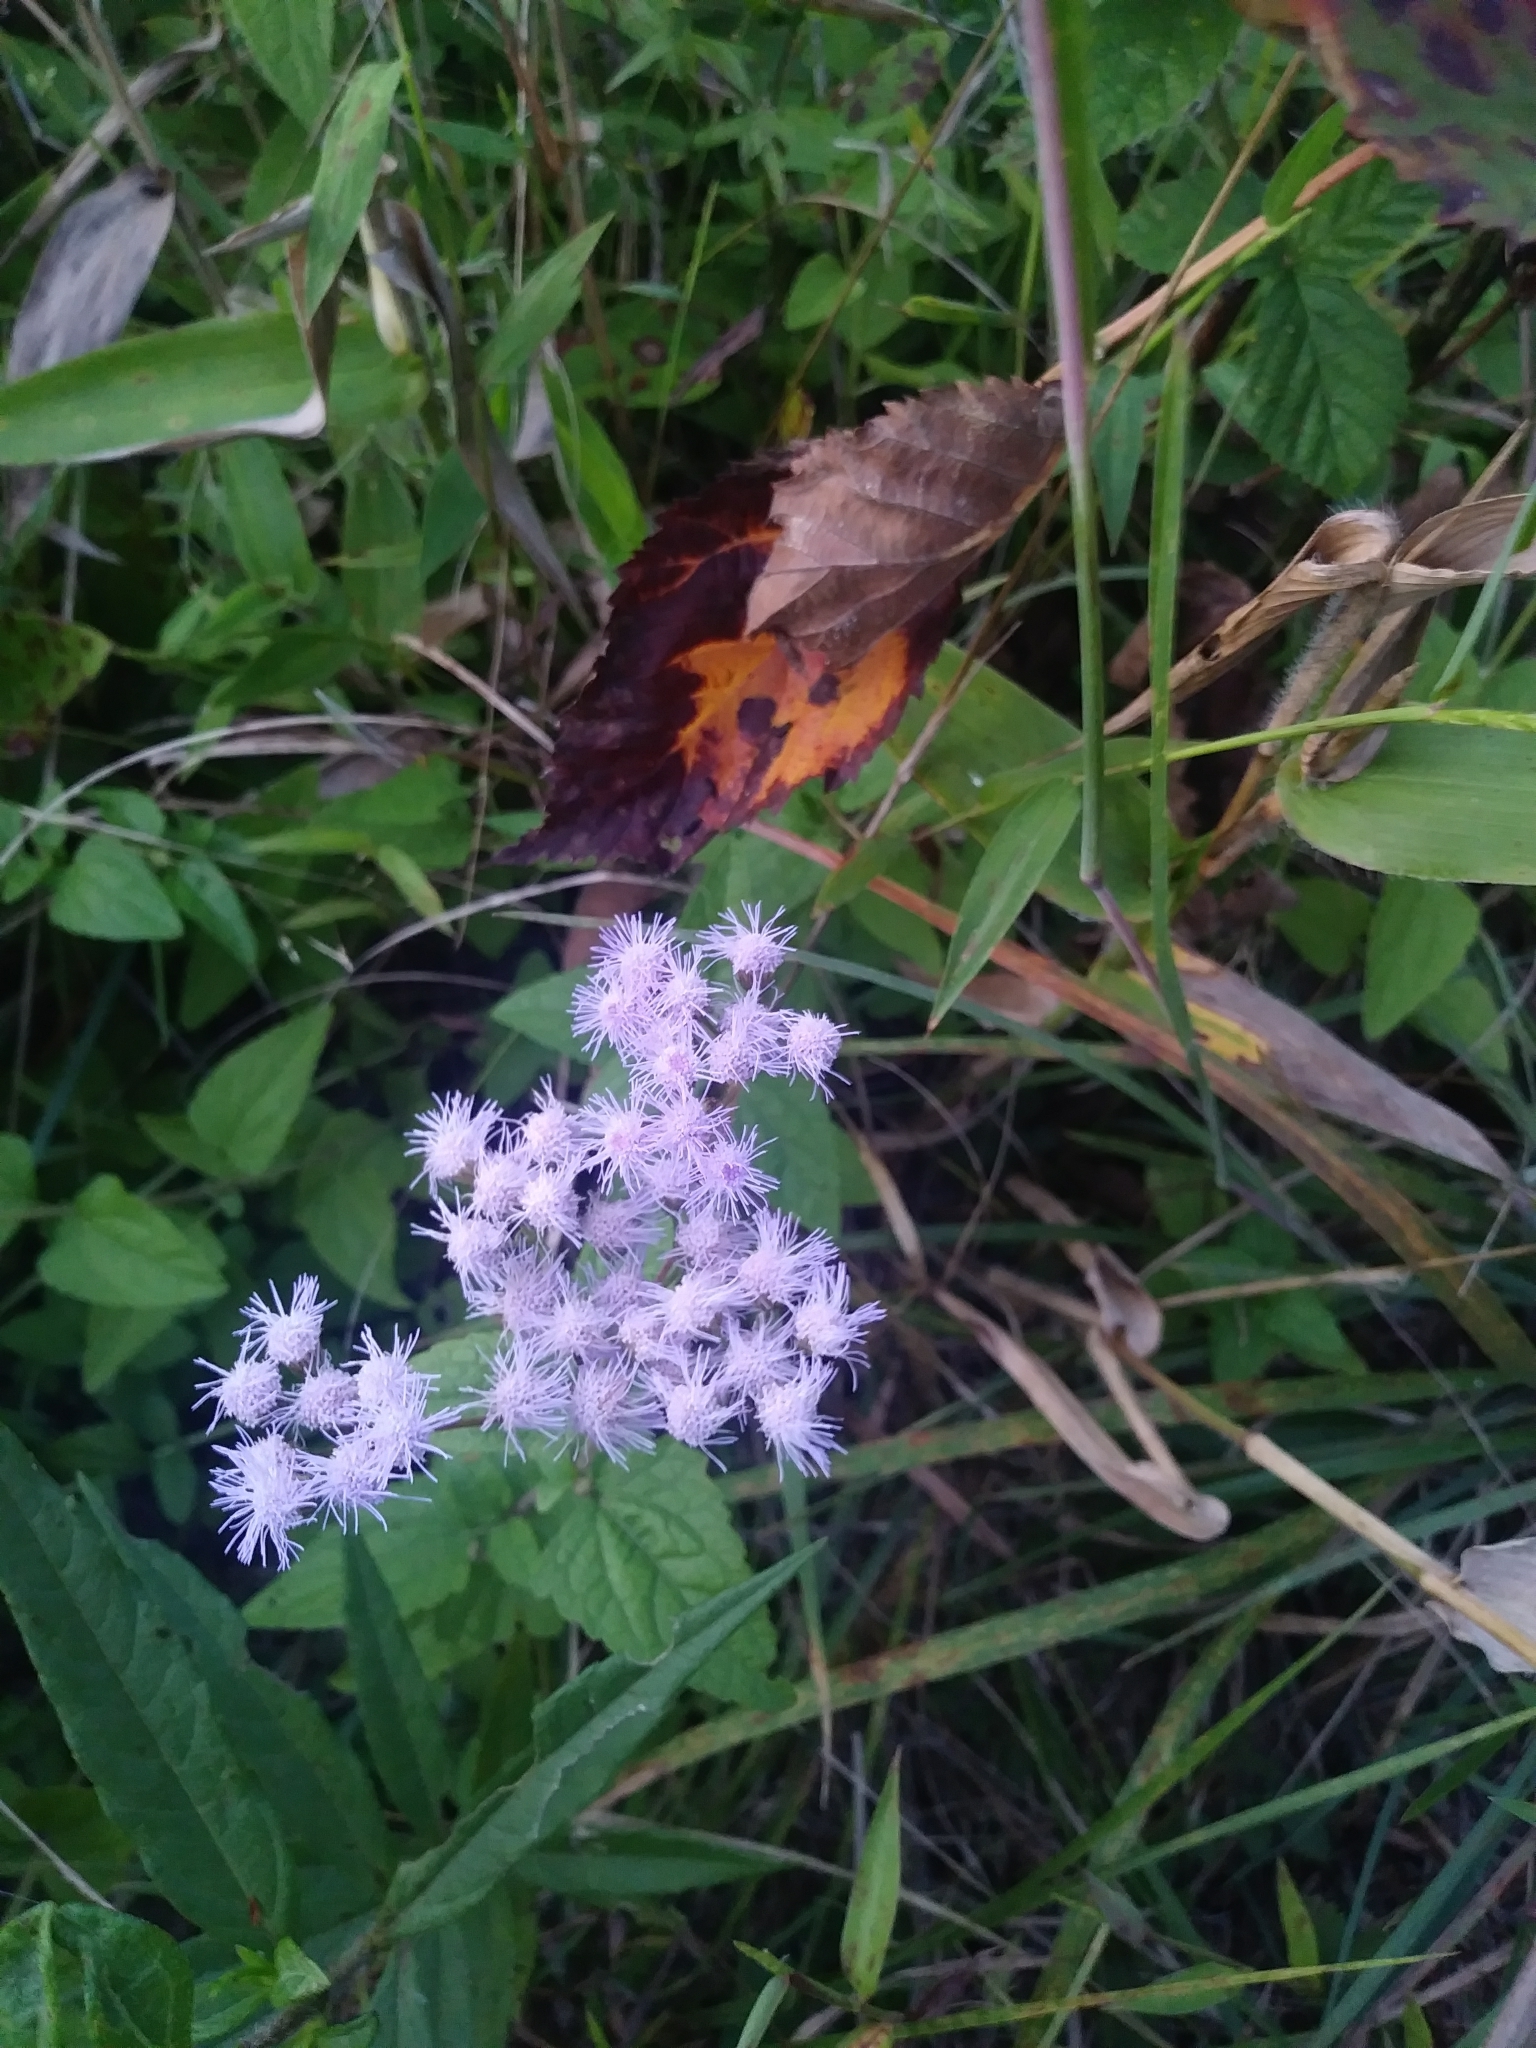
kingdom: Plantae
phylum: Tracheophyta
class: Magnoliopsida
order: Asterales
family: Asteraceae
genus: Conoclinium
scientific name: Conoclinium coelestinum
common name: Blue mistflower
